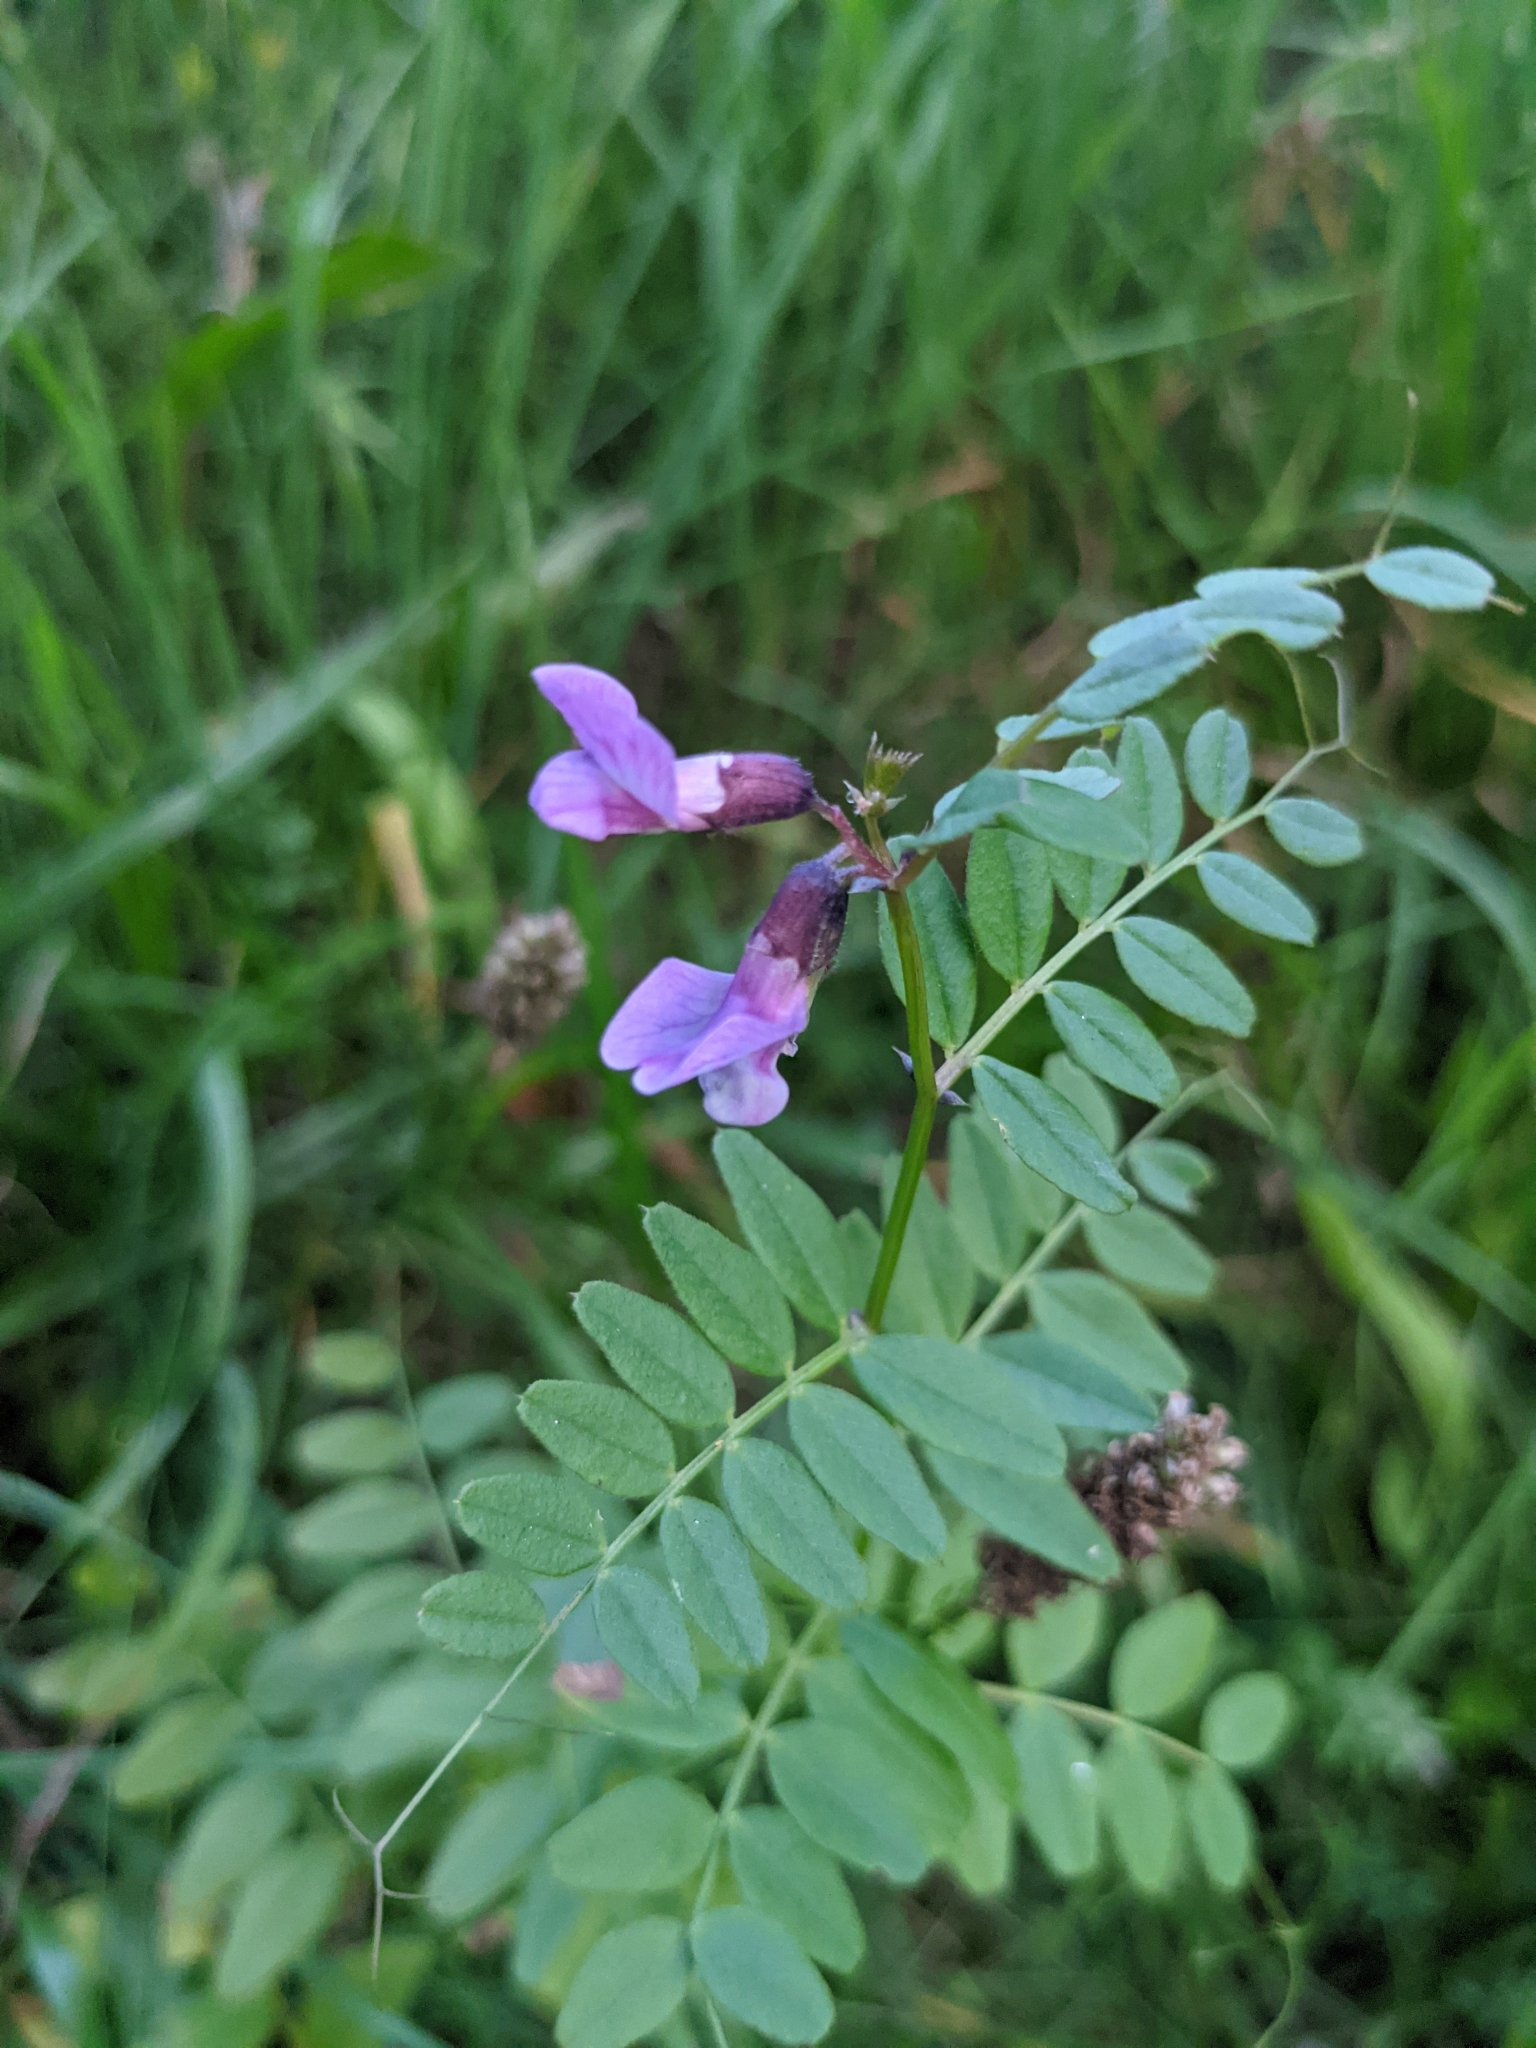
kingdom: Plantae
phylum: Tracheophyta
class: Magnoliopsida
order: Fabales
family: Fabaceae
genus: Vicia
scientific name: Vicia sepium
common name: Bush vetch
